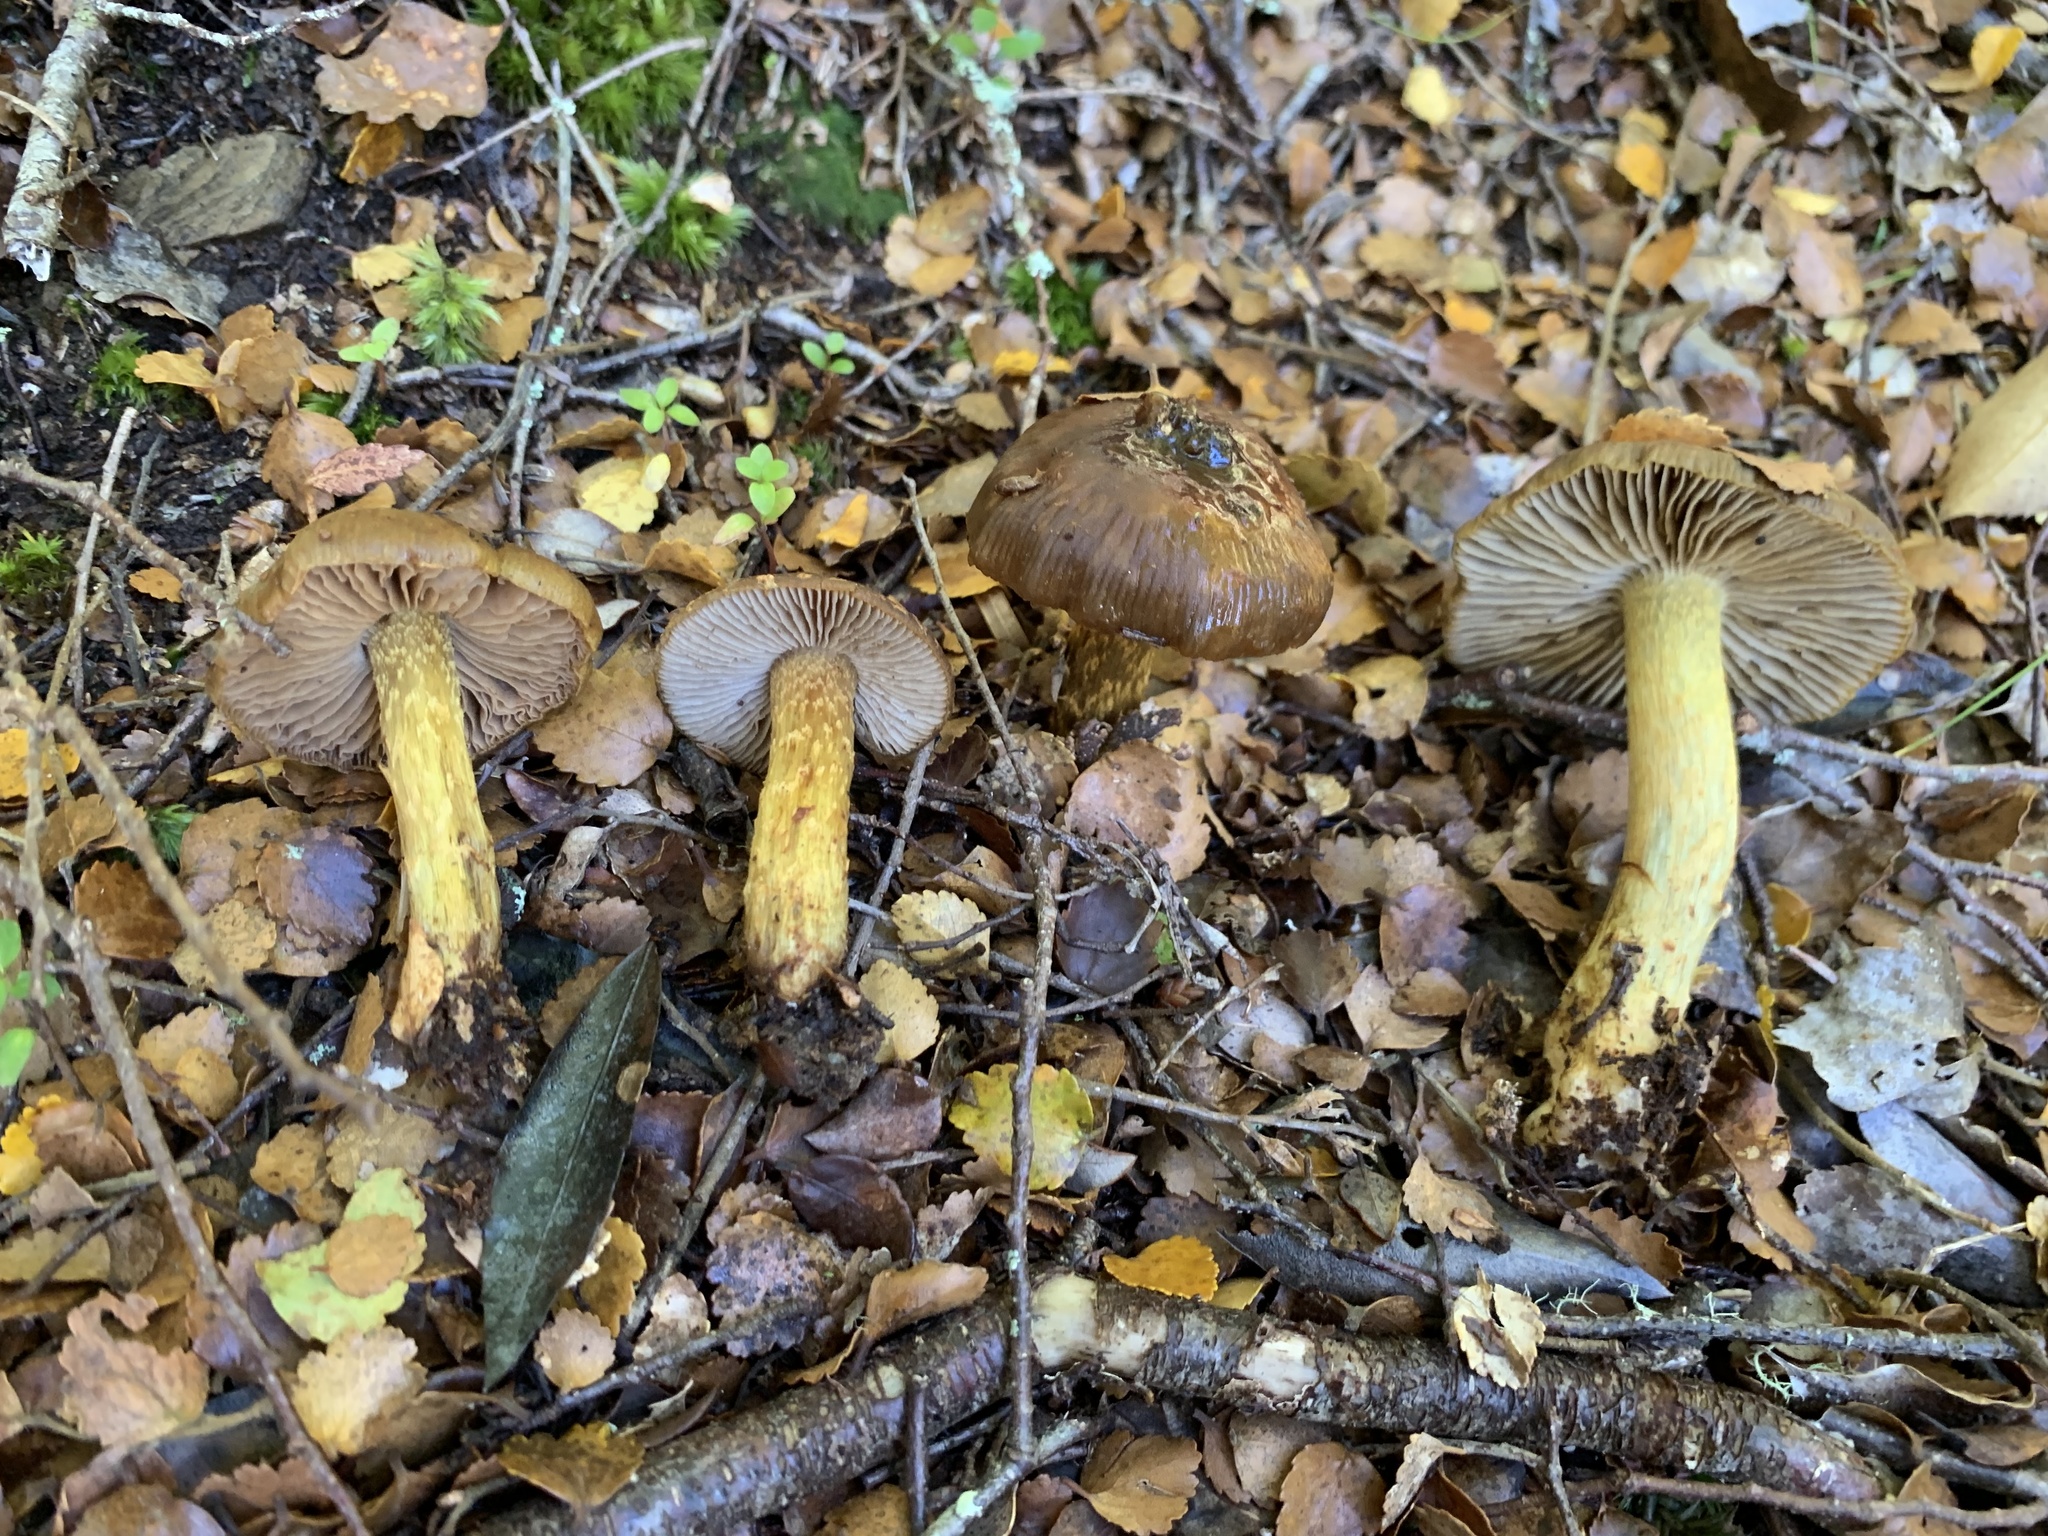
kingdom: Fungi
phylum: Basidiomycota
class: Agaricomycetes
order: Agaricales
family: Cortinariaceae
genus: Cortinarius
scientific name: Cortinarius elaiochrous
